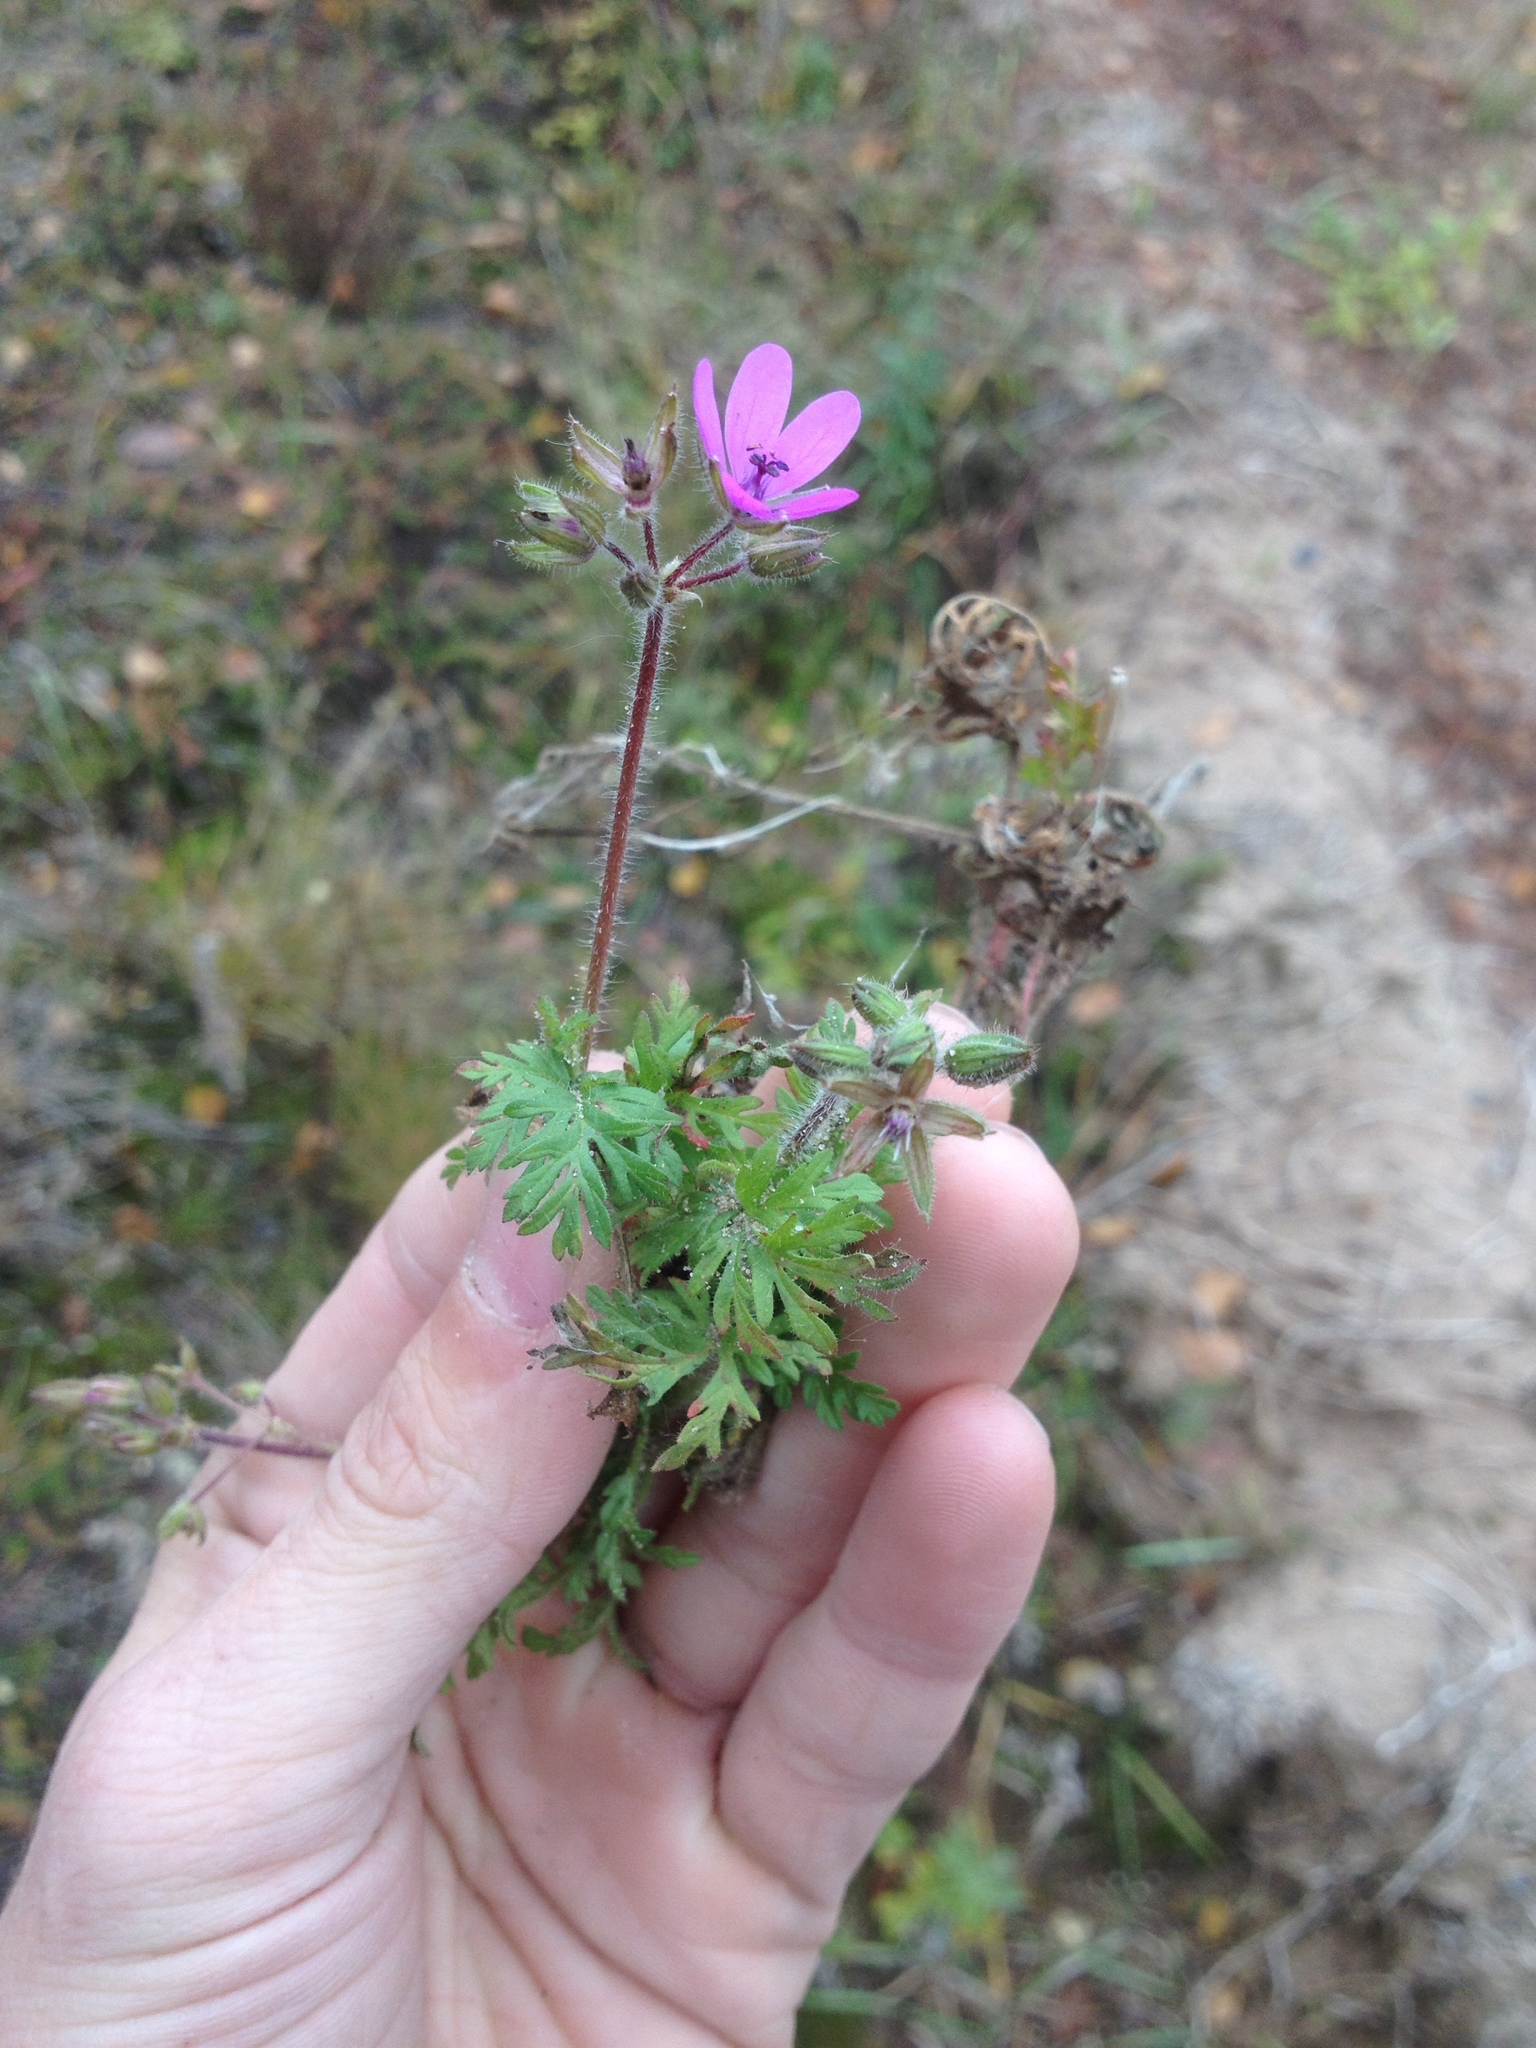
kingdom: Plantae
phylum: Tracheophyta
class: Magnoliopsida
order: Geraniales
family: Geraniaceae
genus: Erodium
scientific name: Erodium cicutarium
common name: Common stork's-bill
